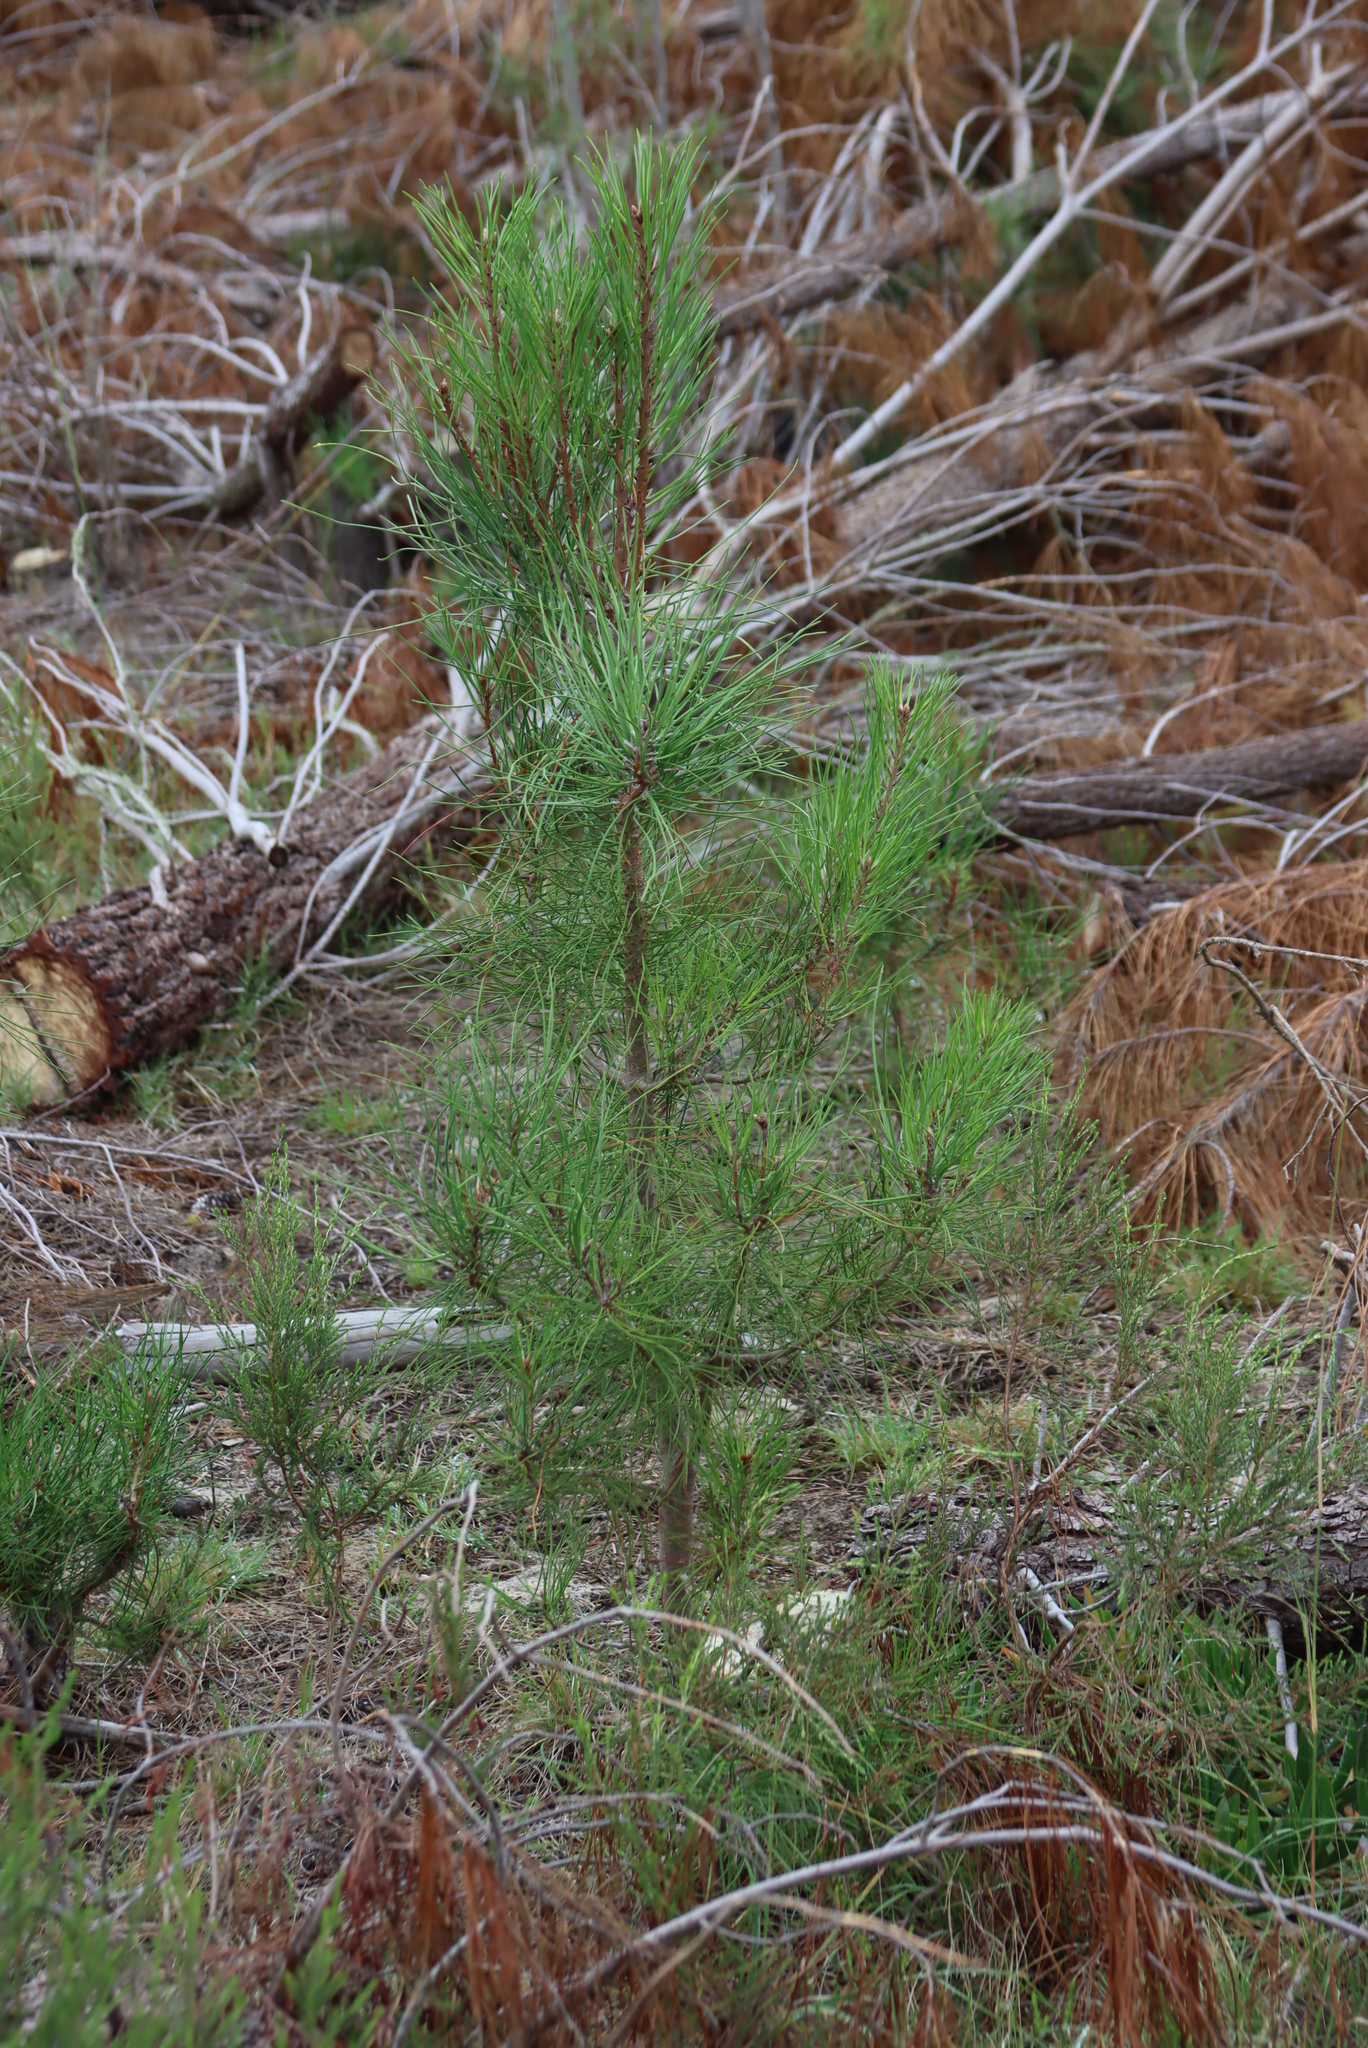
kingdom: Plantae
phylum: Tracheophyta
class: Pinopsida
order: Pinales
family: Pinaceae
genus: Pinus
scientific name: Pinus pinaster
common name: Maritime pine
